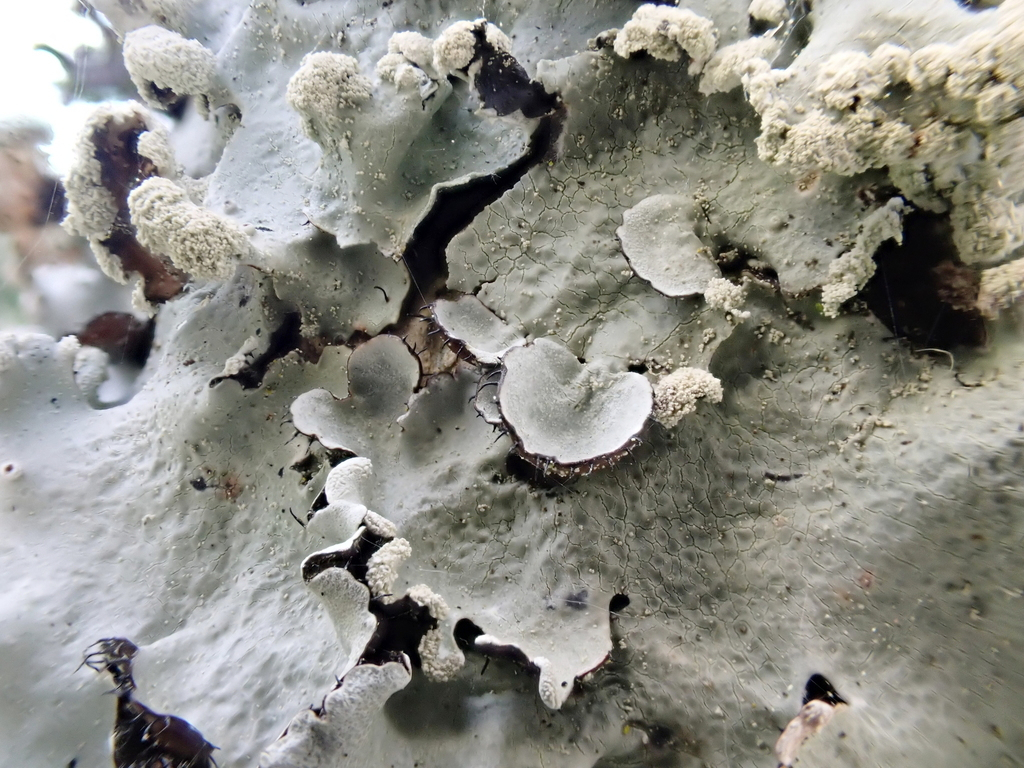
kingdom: Fungi
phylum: Ascomycota
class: Lecanoromycetes
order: Lecanorales
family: Parmeliaceae
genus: Parmotrema
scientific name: Parmotrema reticulatum
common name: Black sheet lichen
